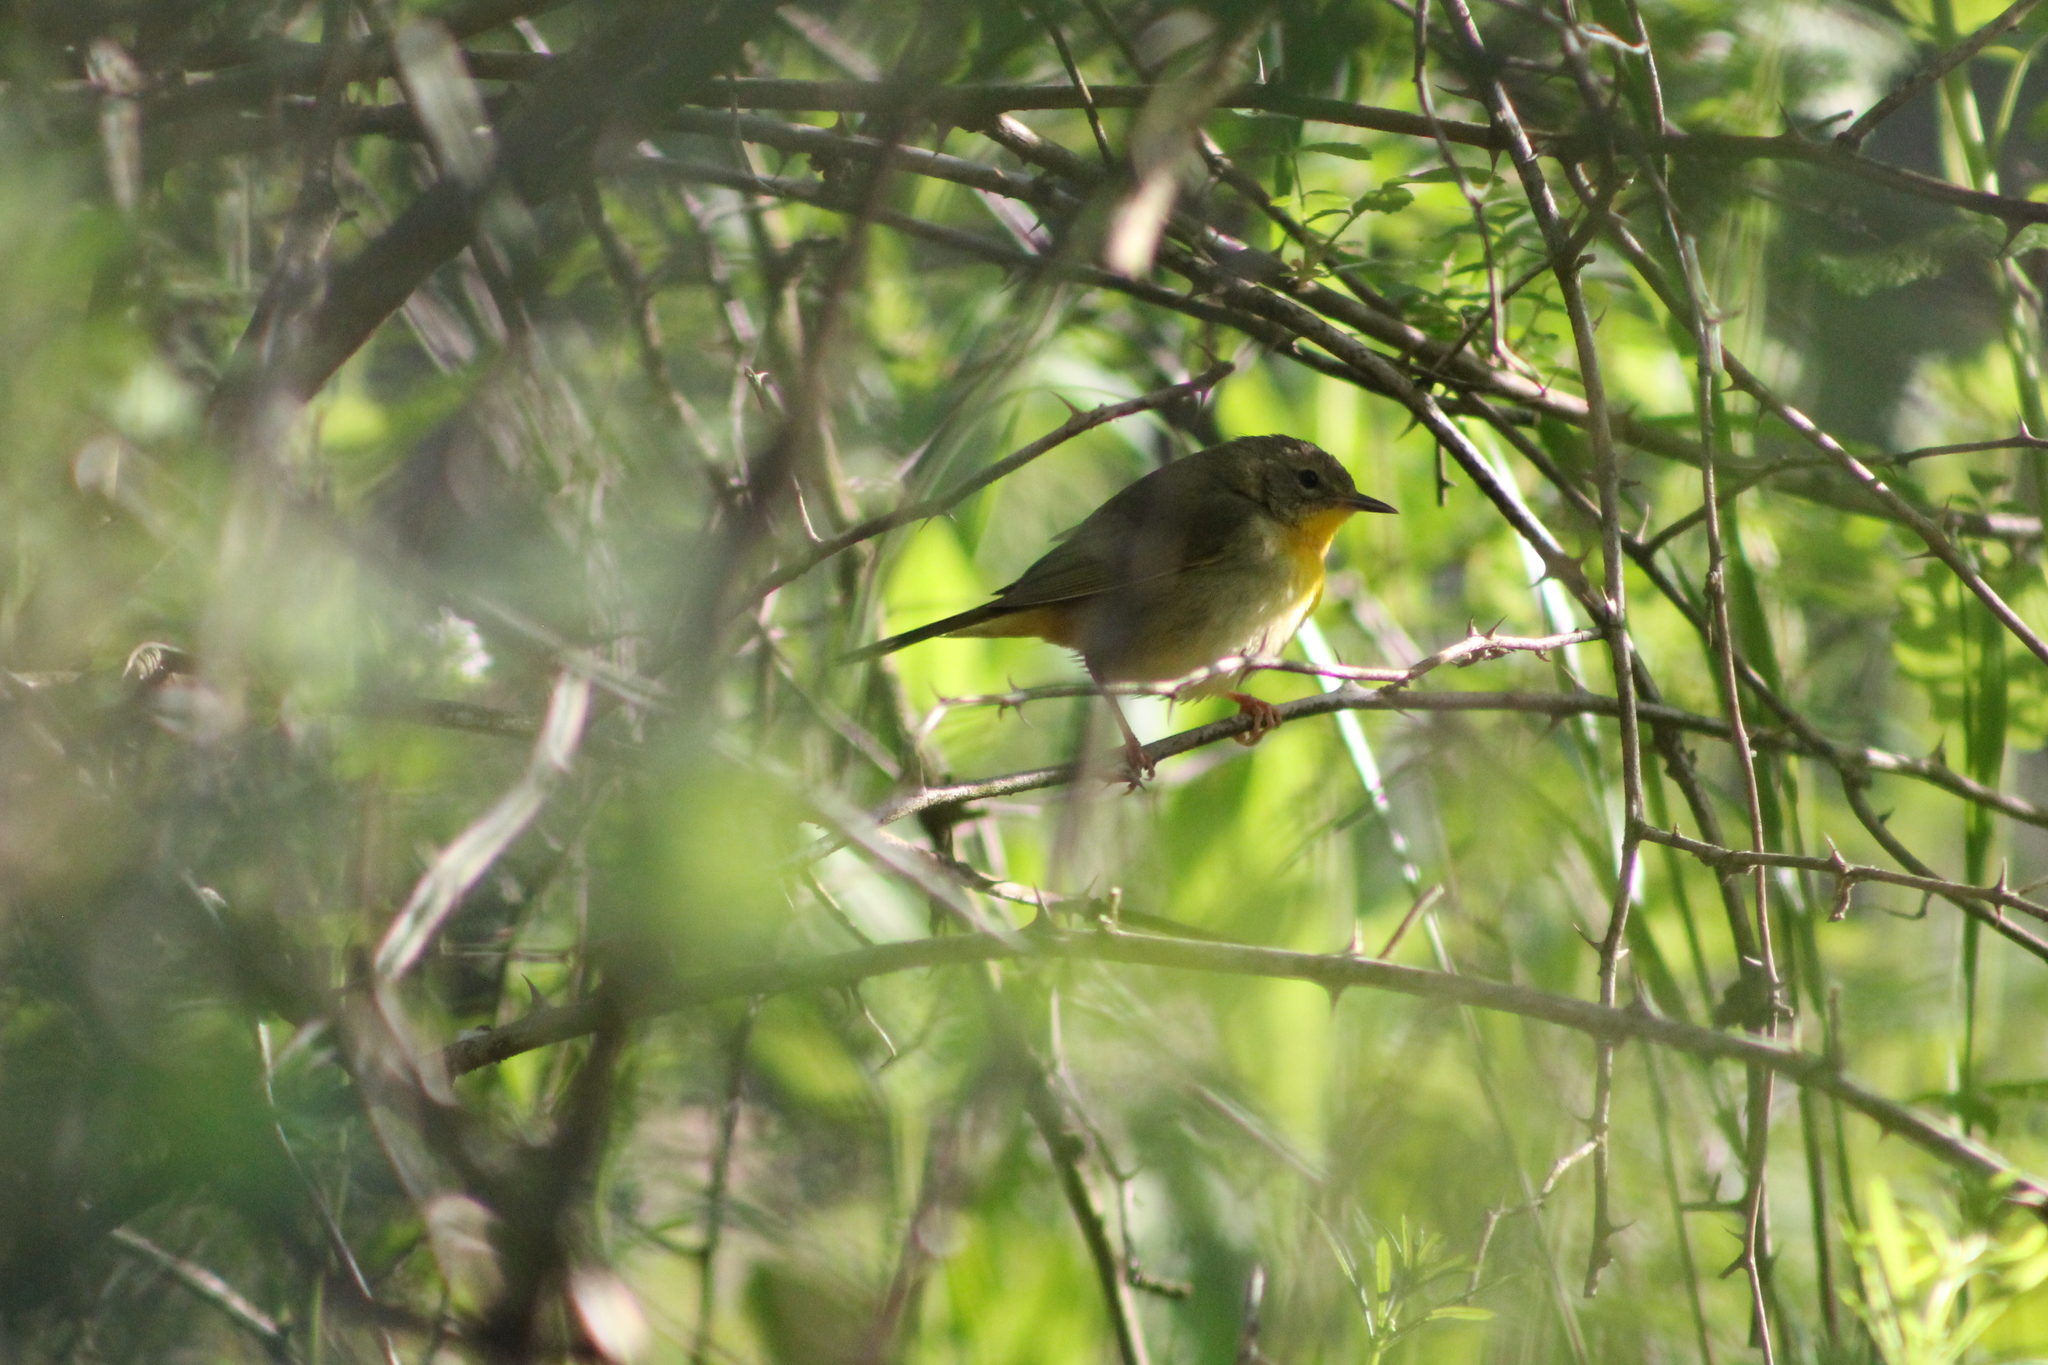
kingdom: Animalia
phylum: Chordata
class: Aves
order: Passeriformes
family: Parulidae
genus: Geothlypis
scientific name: Geothlypis trichas
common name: Common yellowthroat
